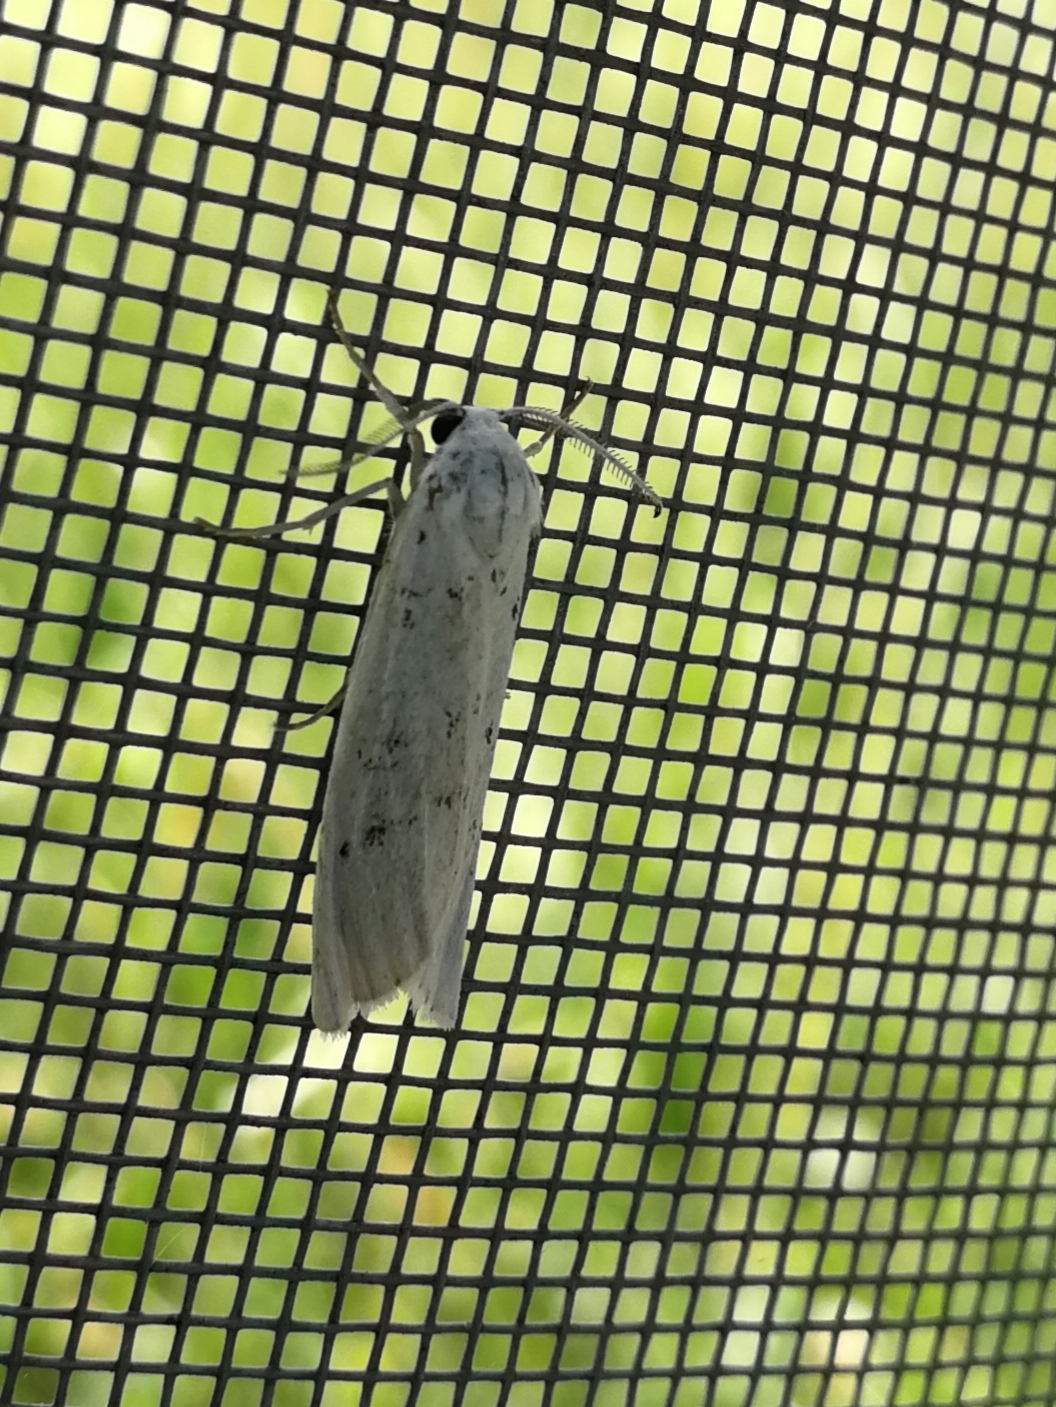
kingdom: Animalia
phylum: Arthropoda
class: Insecta
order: Lepidoptera
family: Erebidae
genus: Coscinia
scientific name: Coscinia cribraria
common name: Speckled footman
